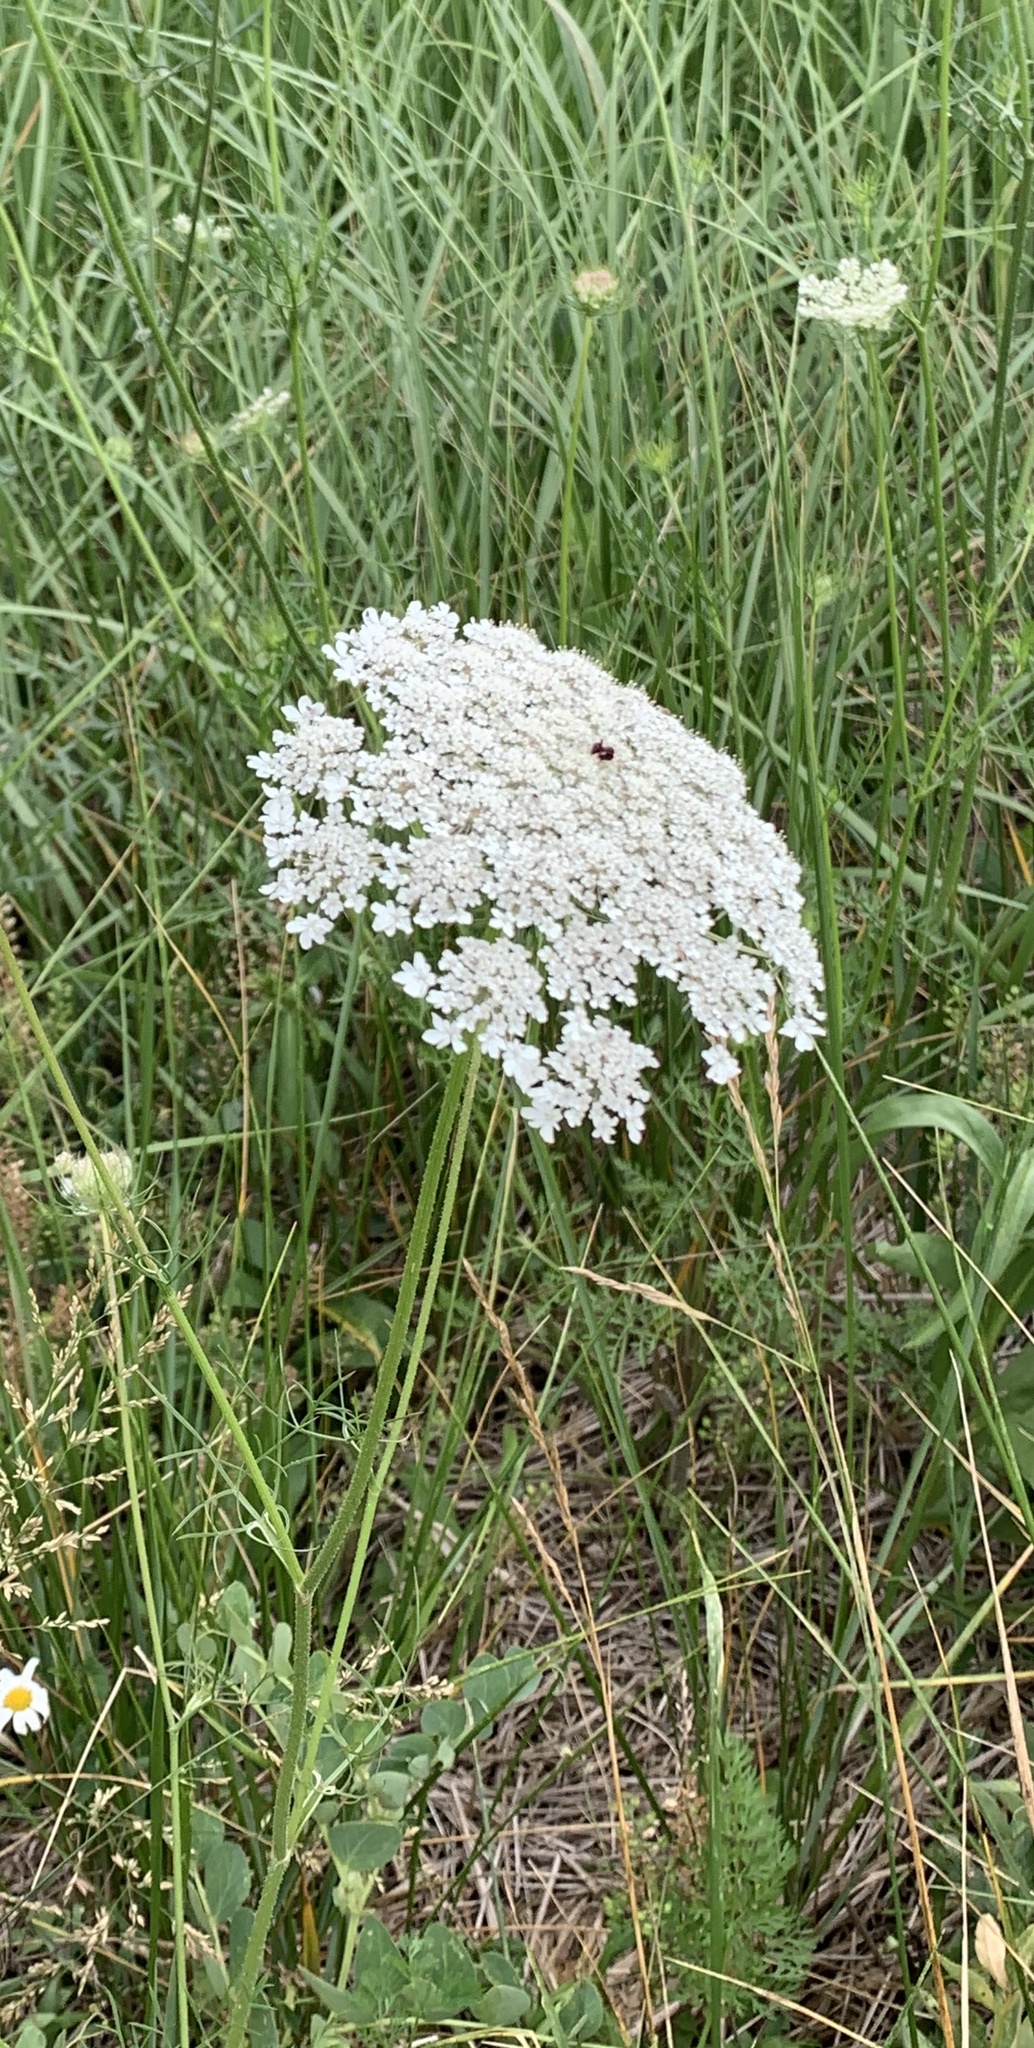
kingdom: Plantae
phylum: Tracheophyta
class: Magnoliopsida
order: Apiales
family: Apiaceae
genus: Daucus
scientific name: Daucus carota
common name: Wild carrot
